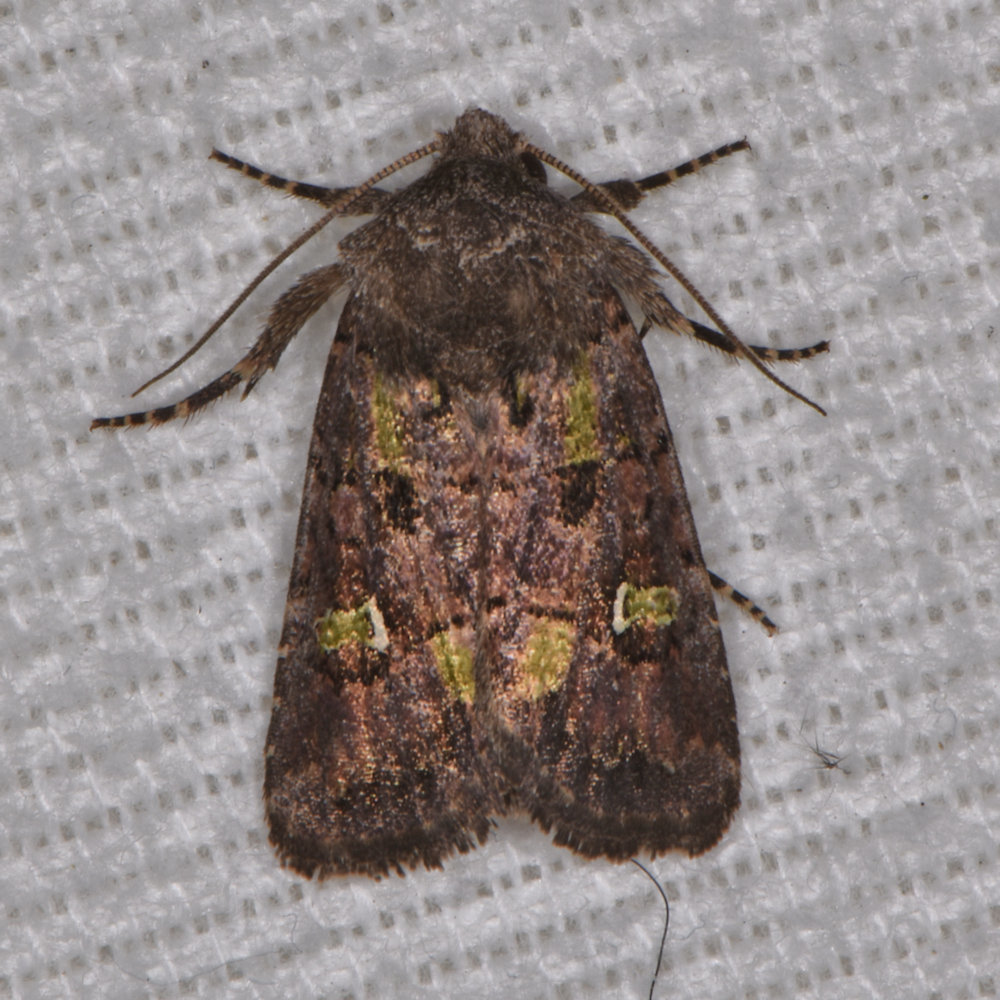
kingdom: Animalia
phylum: Arthropoda
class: Insecta
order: Lepidoptera
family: Noctuidae
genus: Lacinipolia
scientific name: Lacinipolia renigera
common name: Kidney-spotted minor
